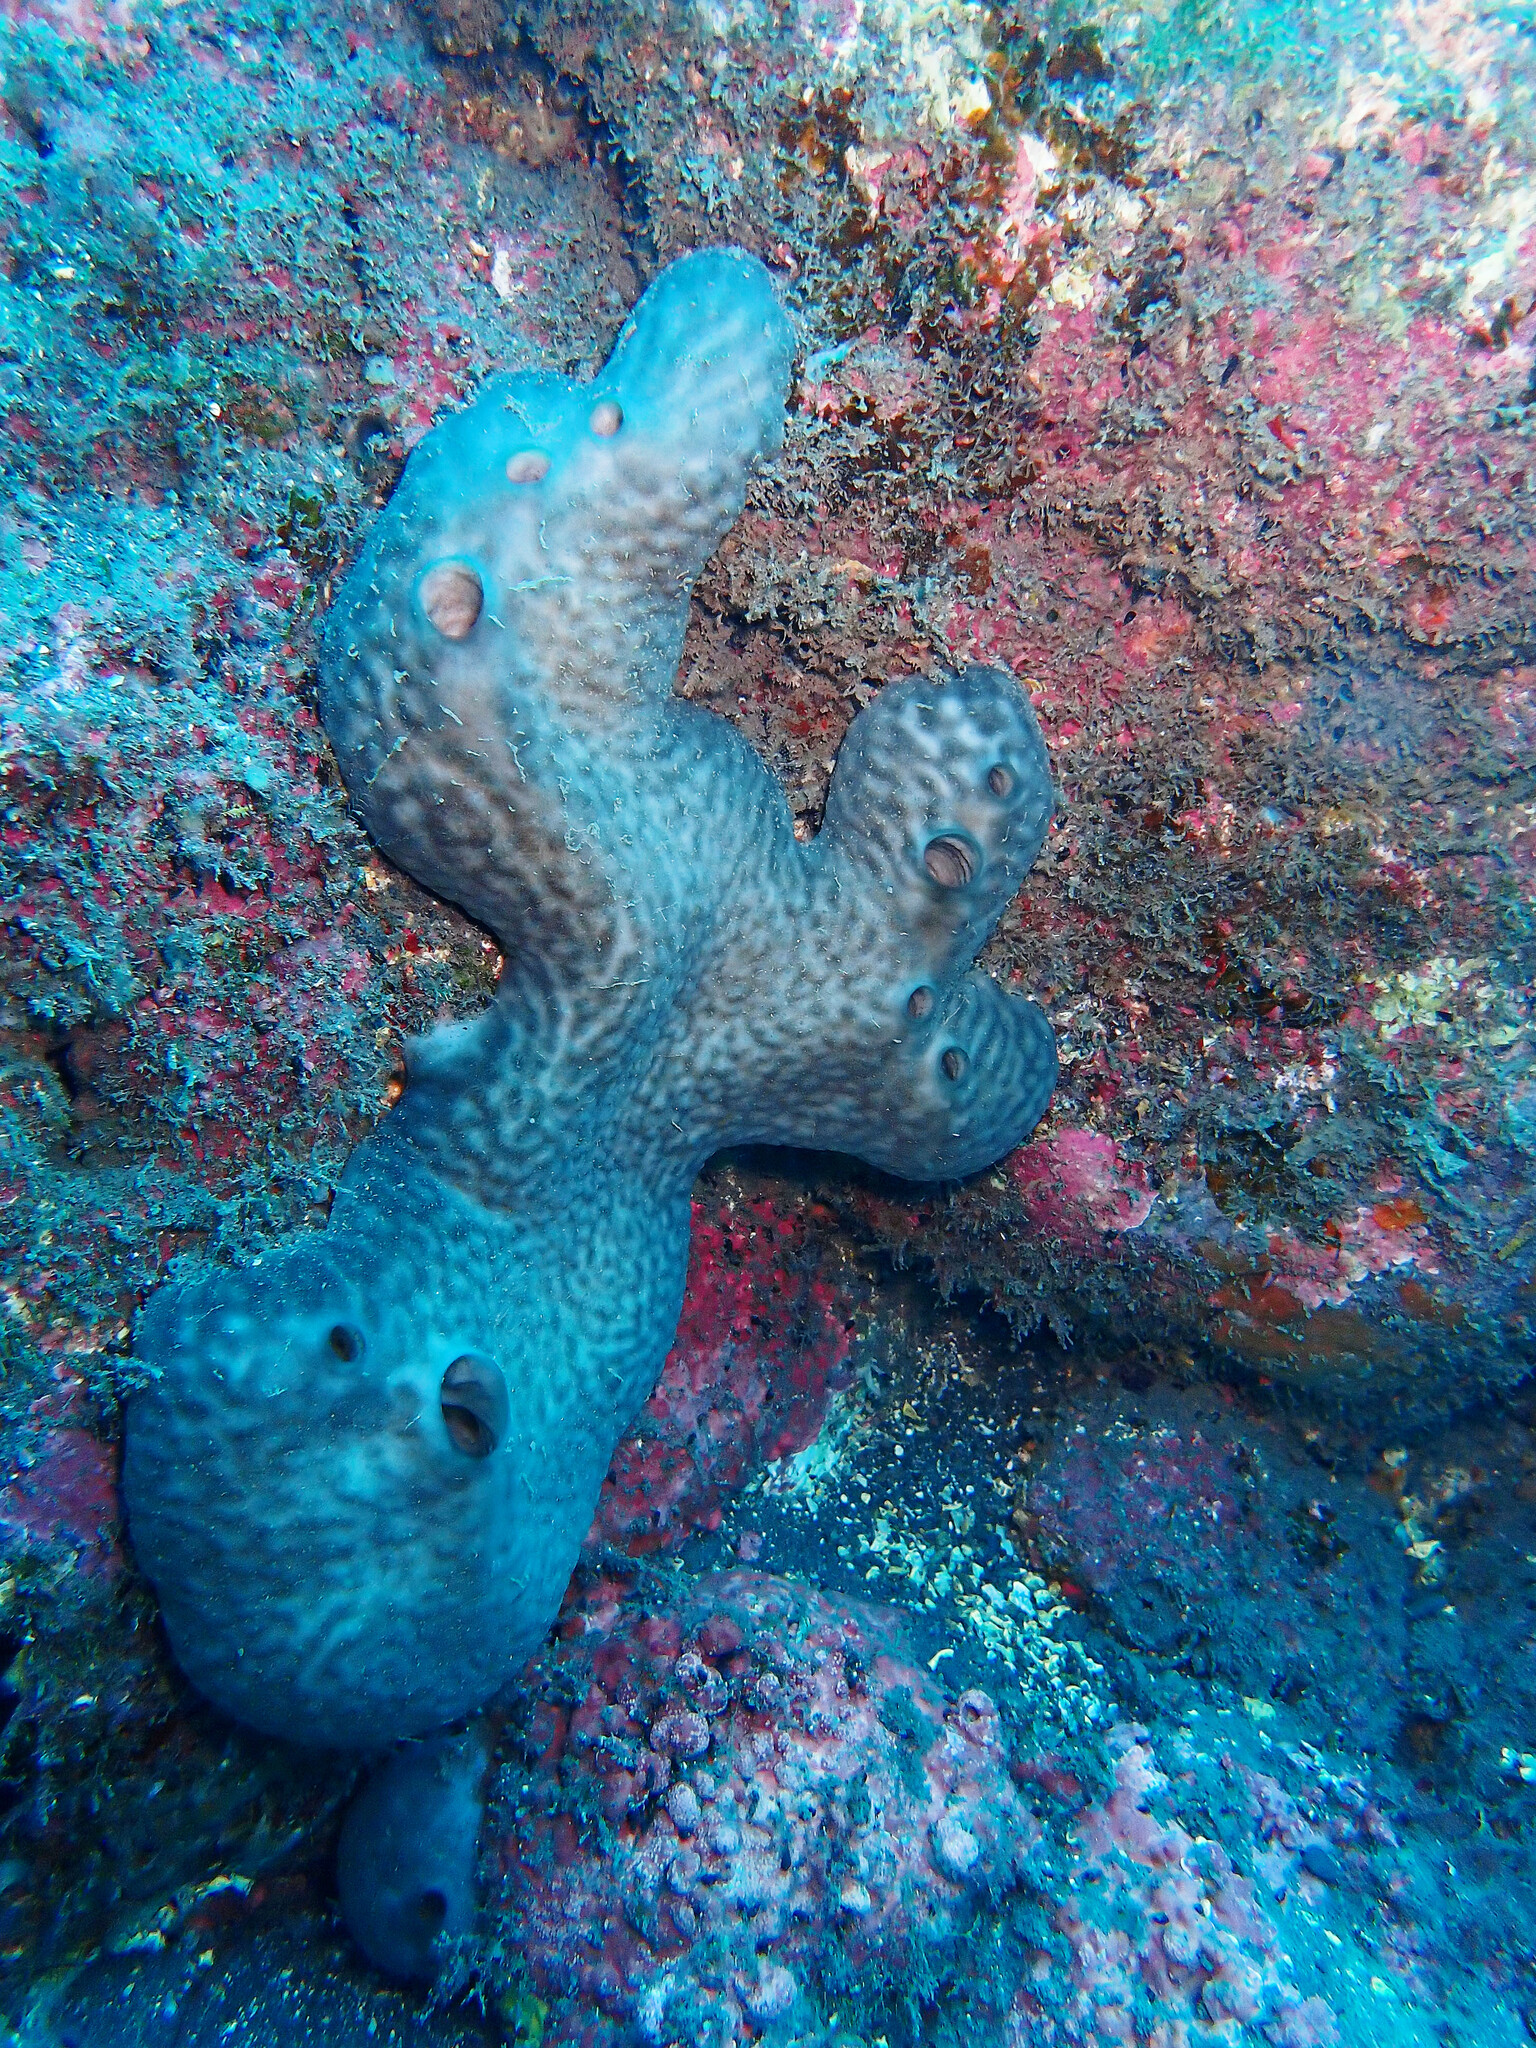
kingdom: Animalia
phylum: Porifera
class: Demospongiae
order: Chondrosiida
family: Chondrosiidae
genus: Chondrosia
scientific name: Chondrosia reniformis
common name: Chicken liver sponge
